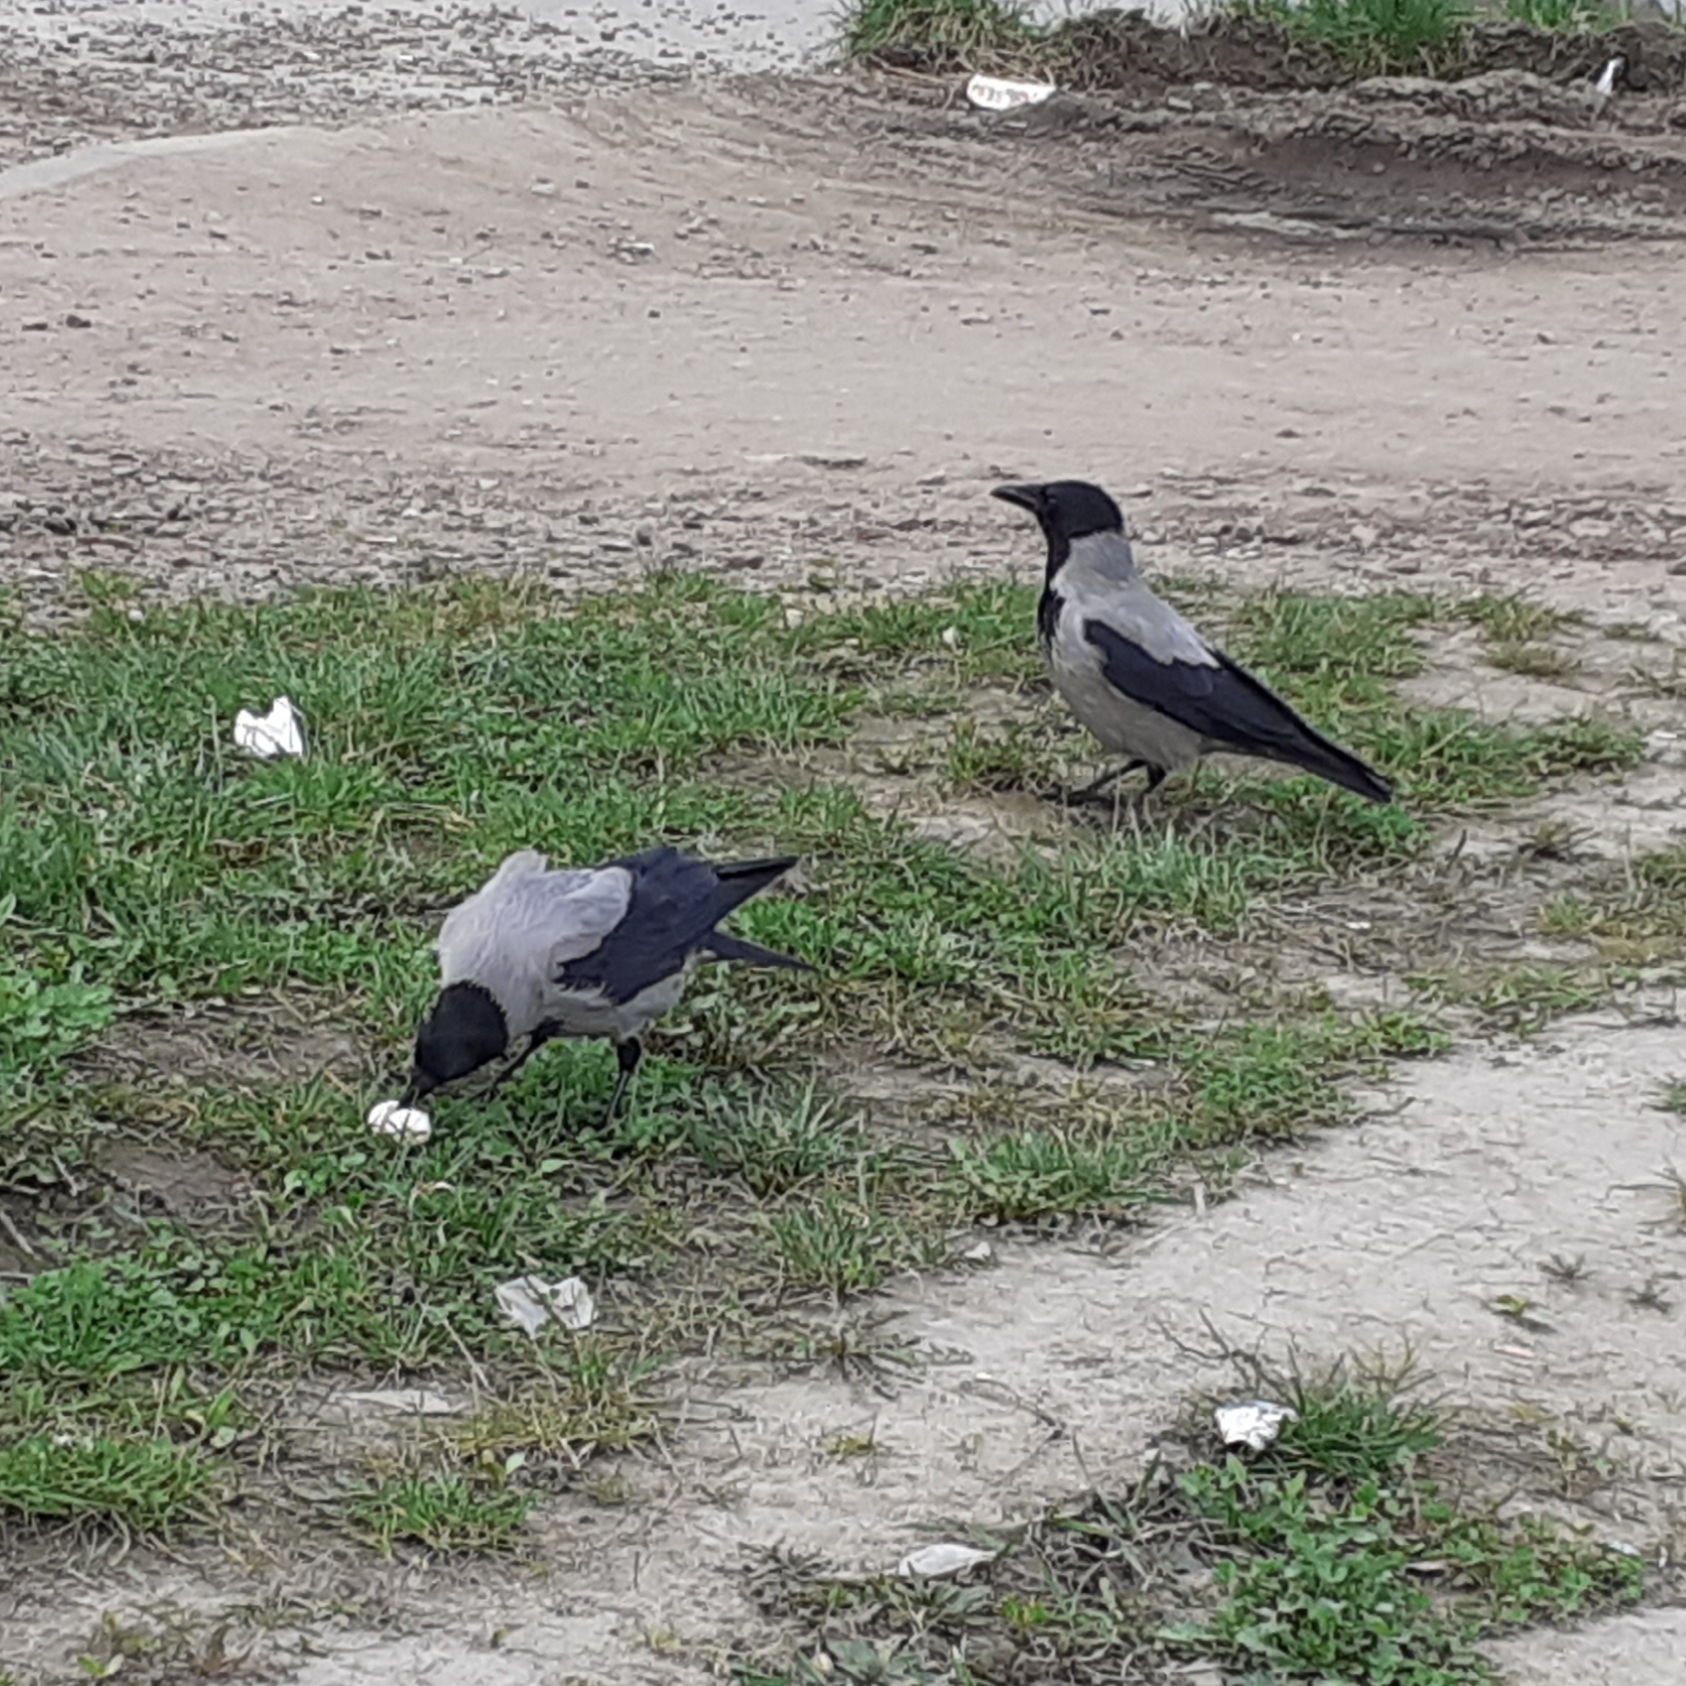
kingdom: Animalia
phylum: Chordata
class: Aves
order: Passeriformes
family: Corvidae
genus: Corvus
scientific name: Corvus cornix
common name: Hooded crow
